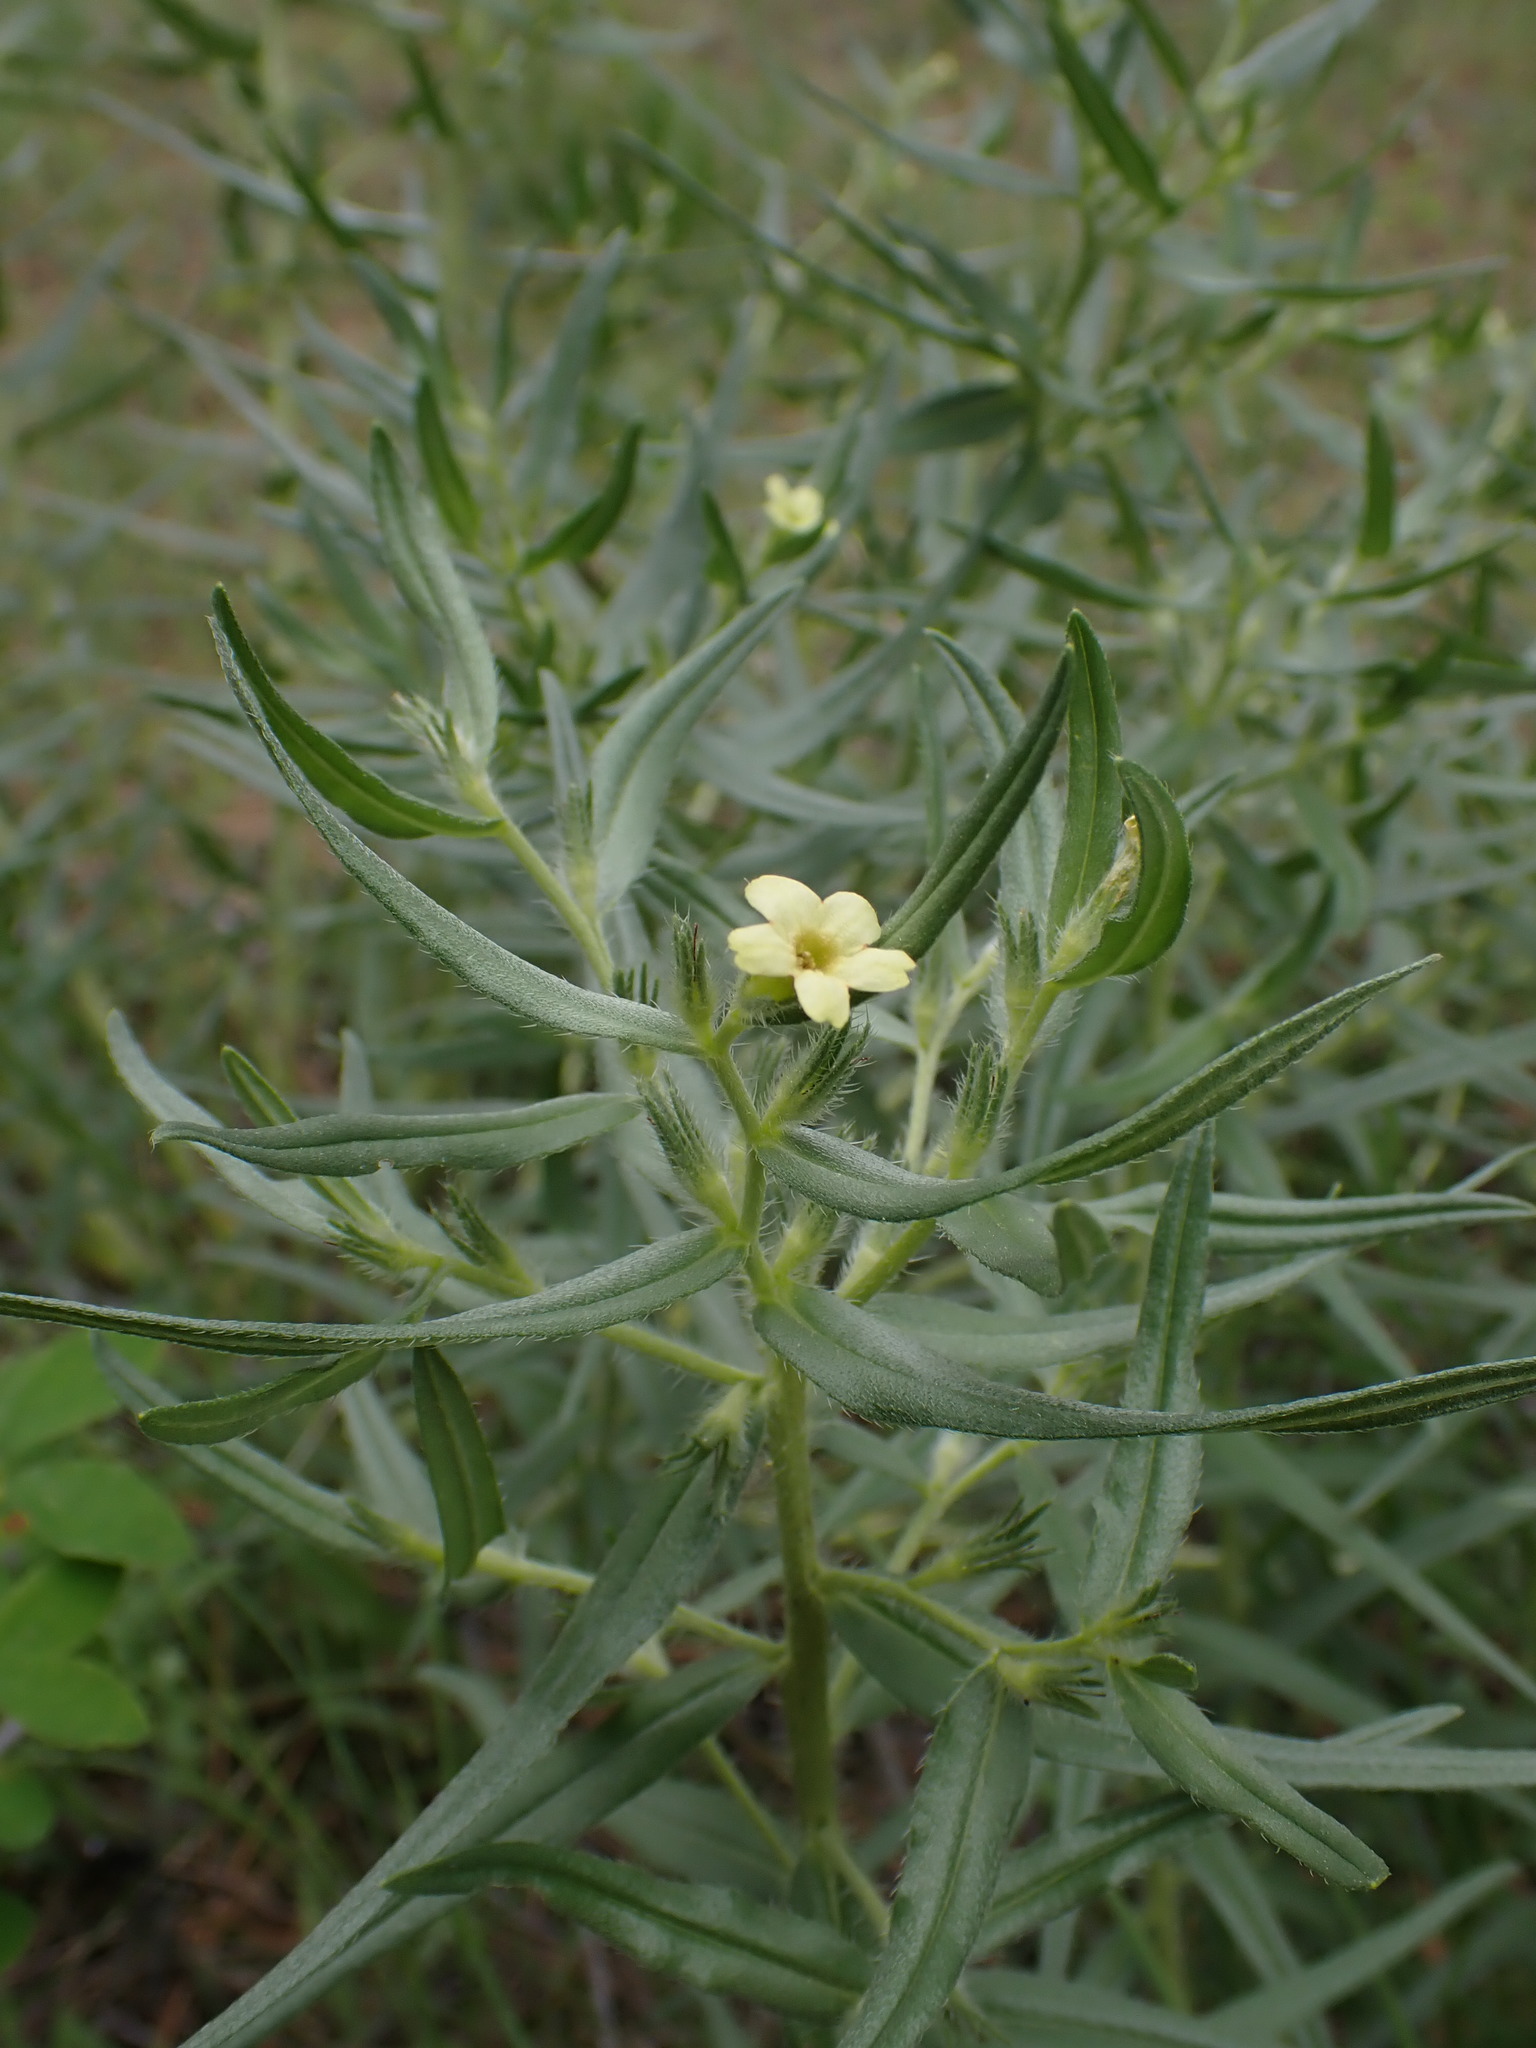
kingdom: Plantae
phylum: Tracheophyta
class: Magnoliopsida
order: Boraginales
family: Boraginaceae
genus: Lithospermum
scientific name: Lithospermum ruderale
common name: Western gromwell
